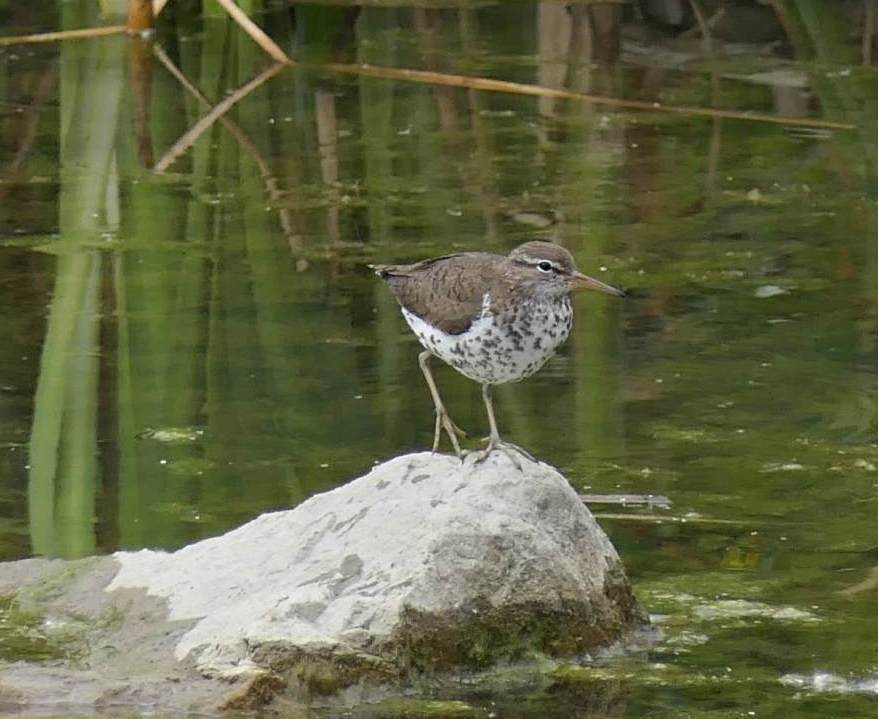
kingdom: Animalia
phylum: Chordata
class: Aves
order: Charadriiformes
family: Scolopacidae
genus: Actitis
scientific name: Actitis macularius
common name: Spotted sandpiper
